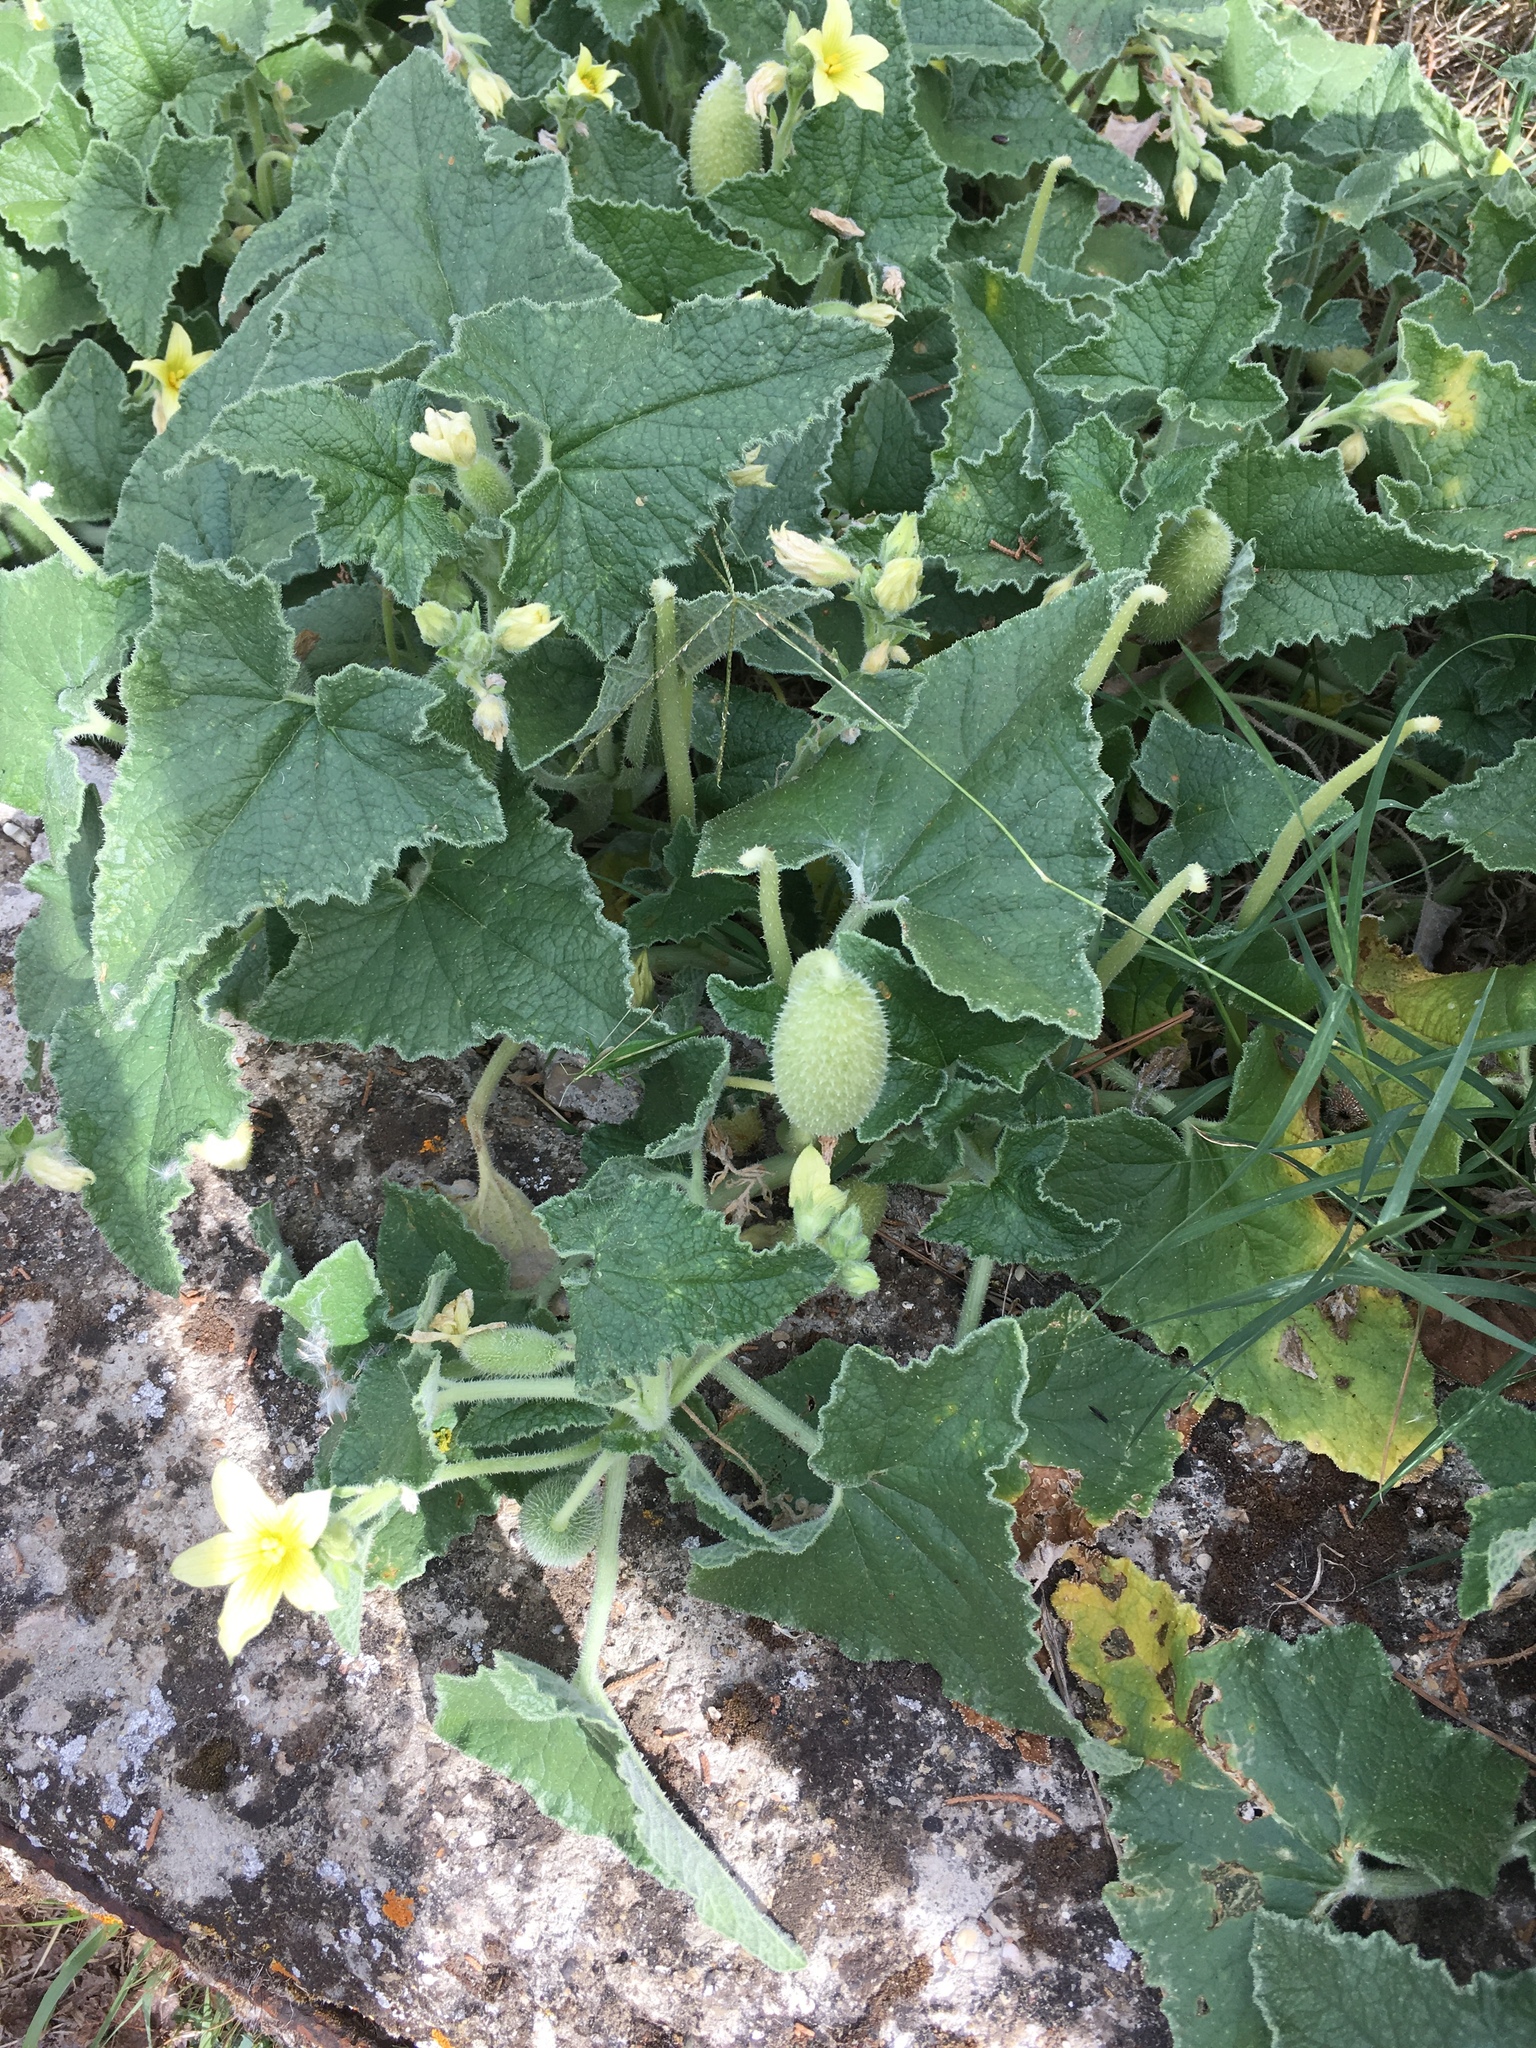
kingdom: Plantae
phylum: Tracheophyta
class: Magnoliopsida
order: Cucurbitales
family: Cucurbitaceae
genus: Ecballium
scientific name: Ecballium elaterium
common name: Squirting cucumber
